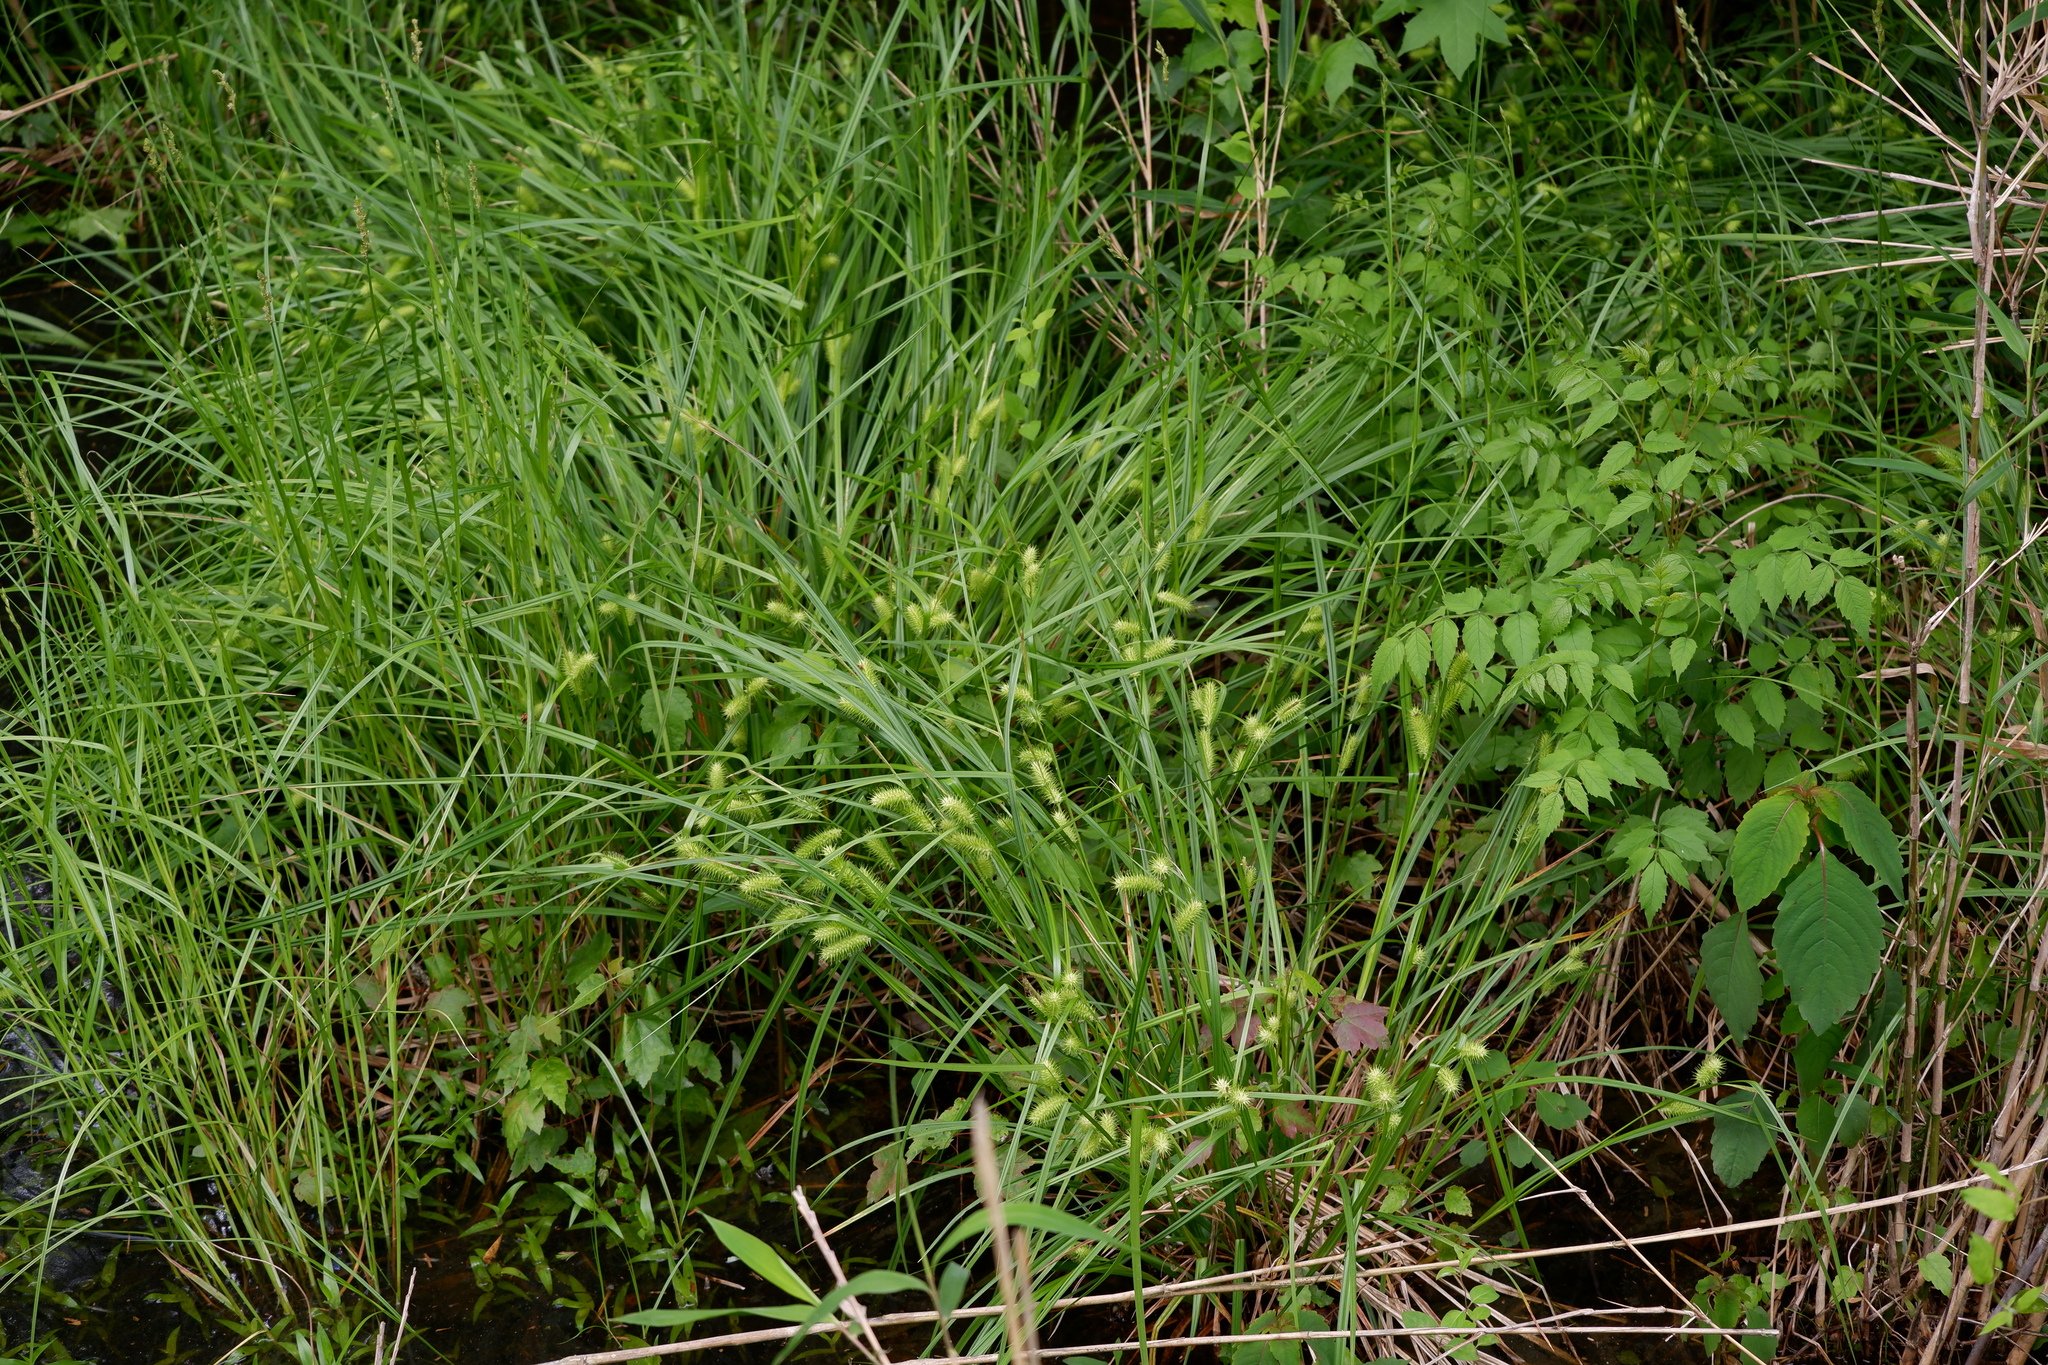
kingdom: Plantae
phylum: Tracheophyta
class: Liliopsida
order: Poales
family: Cyperaceae
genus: Carex
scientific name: Carex lurida
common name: Sallow sedge
